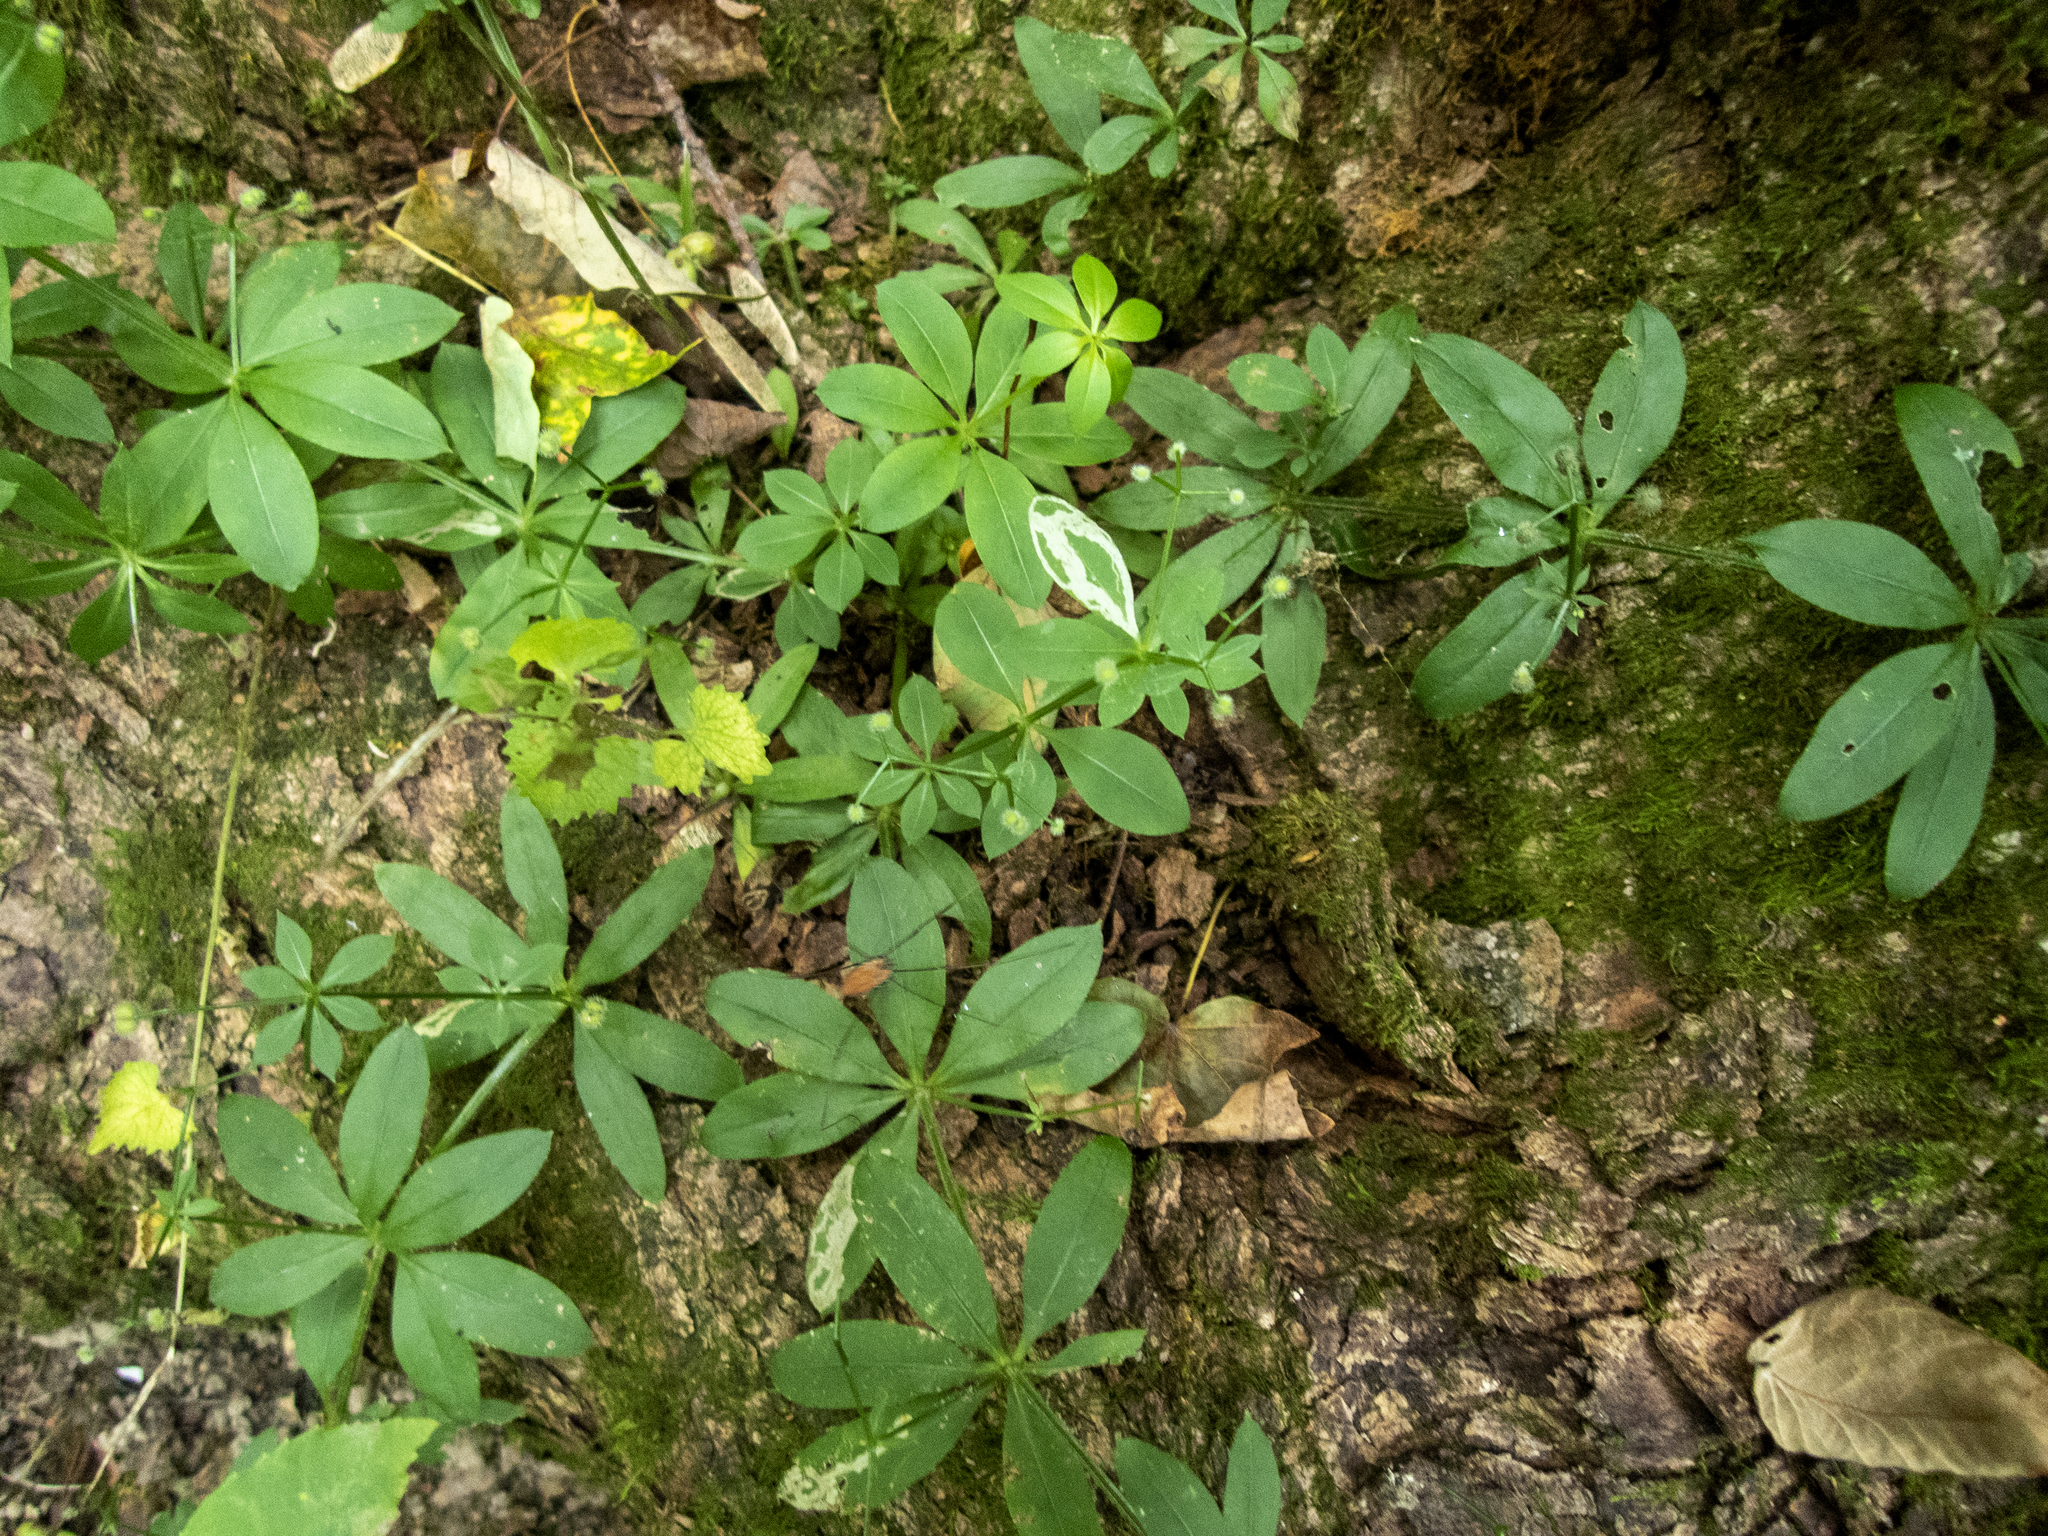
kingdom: Plantae
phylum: Tracheophyta
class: Magnoliopsida
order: Gentianales
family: Rubiaceae
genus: Galium
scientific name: Galium triflorum
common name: Fragrant bedstraw
